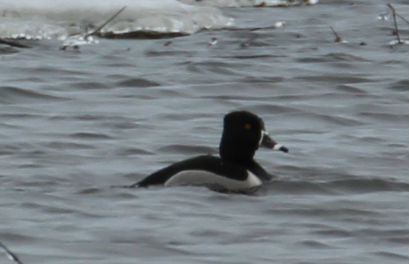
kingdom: Animalia
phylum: Chordata
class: Aves
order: Anseriformes
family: Anatidae
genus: Aythya
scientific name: Aythya collaris
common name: Ring-necked duck
